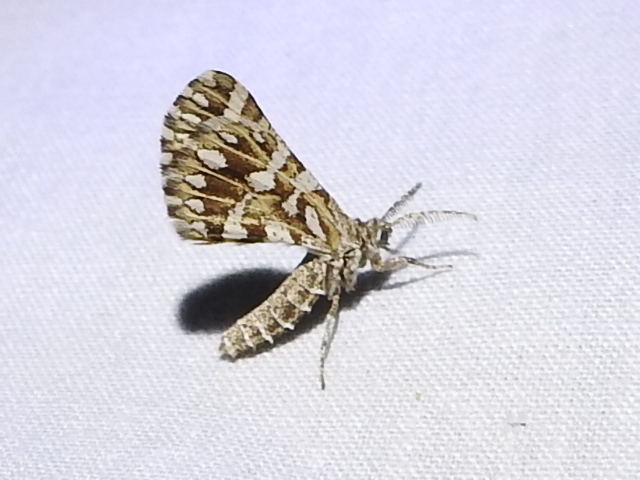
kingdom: Animalia
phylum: Arthropoda
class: Insecta
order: Lepidoptera
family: Geometridae
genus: Narraga
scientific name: Narraga fimetaria
